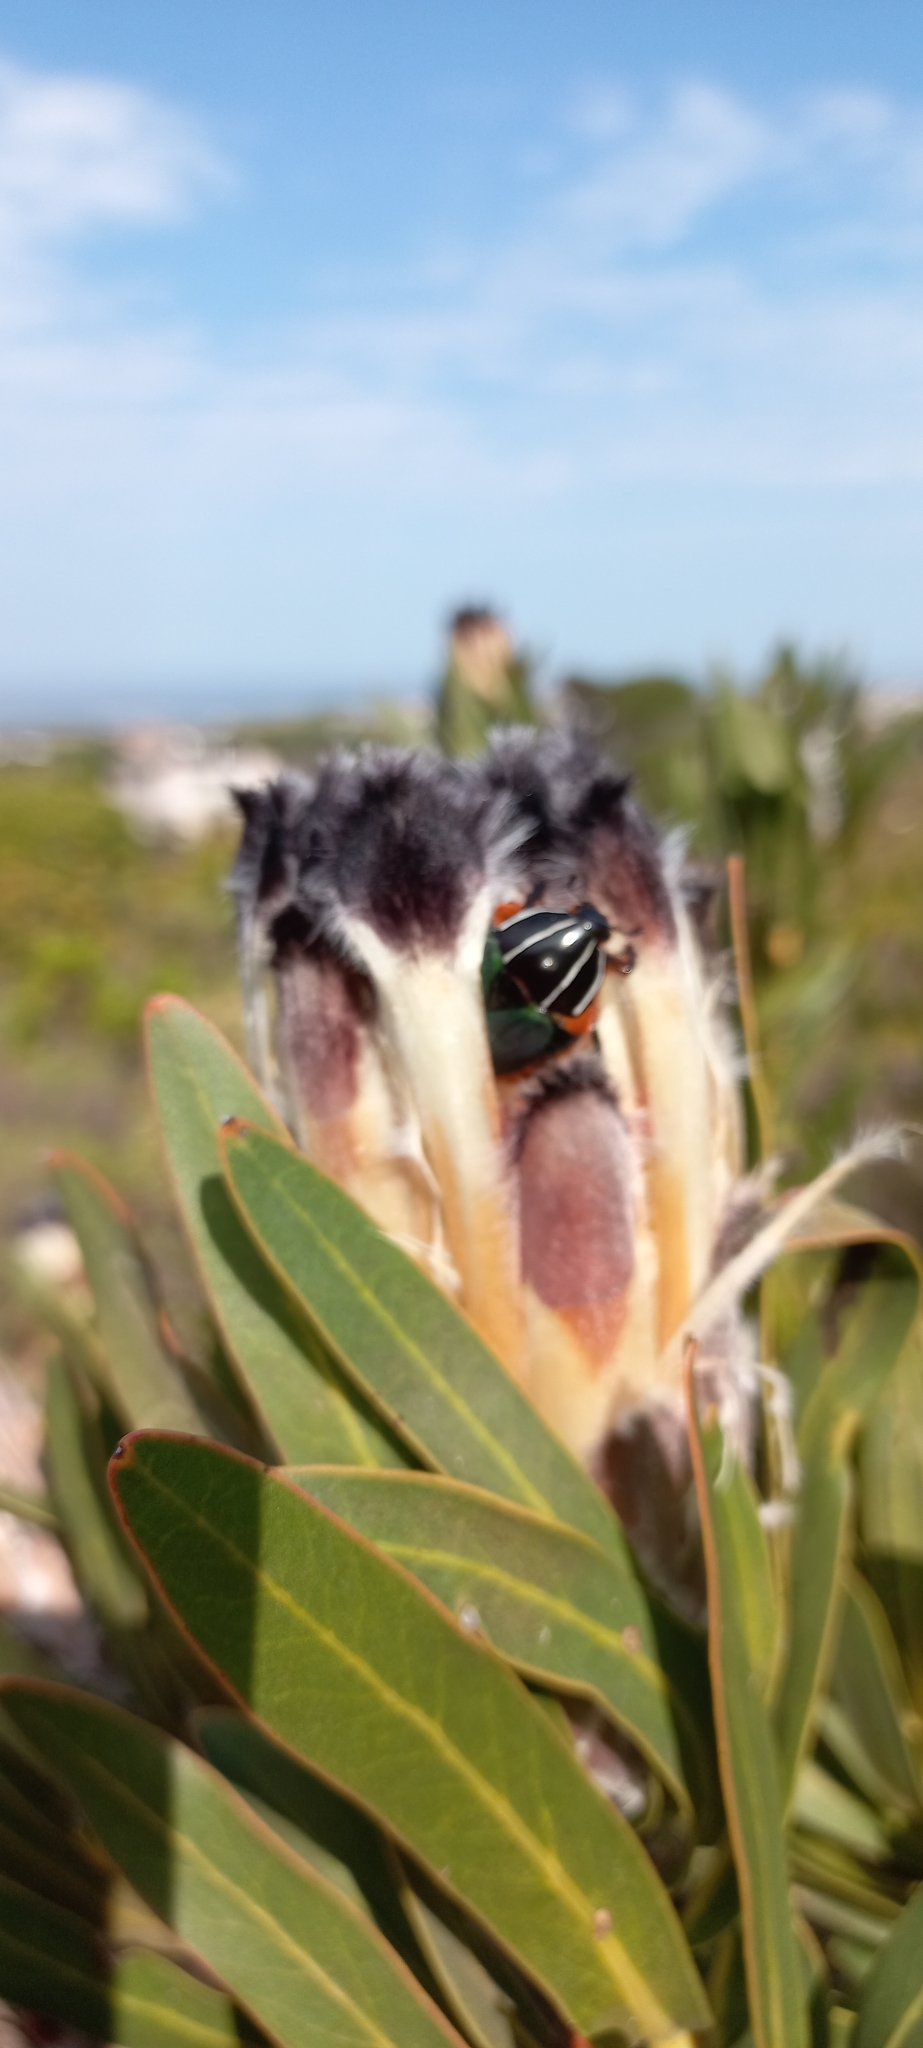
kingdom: Animalia
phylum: Arthropoda
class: Insecta
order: Coleoptera
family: Scarabaeidae
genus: Trichostetha
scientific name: Trichostetha fascicularis
